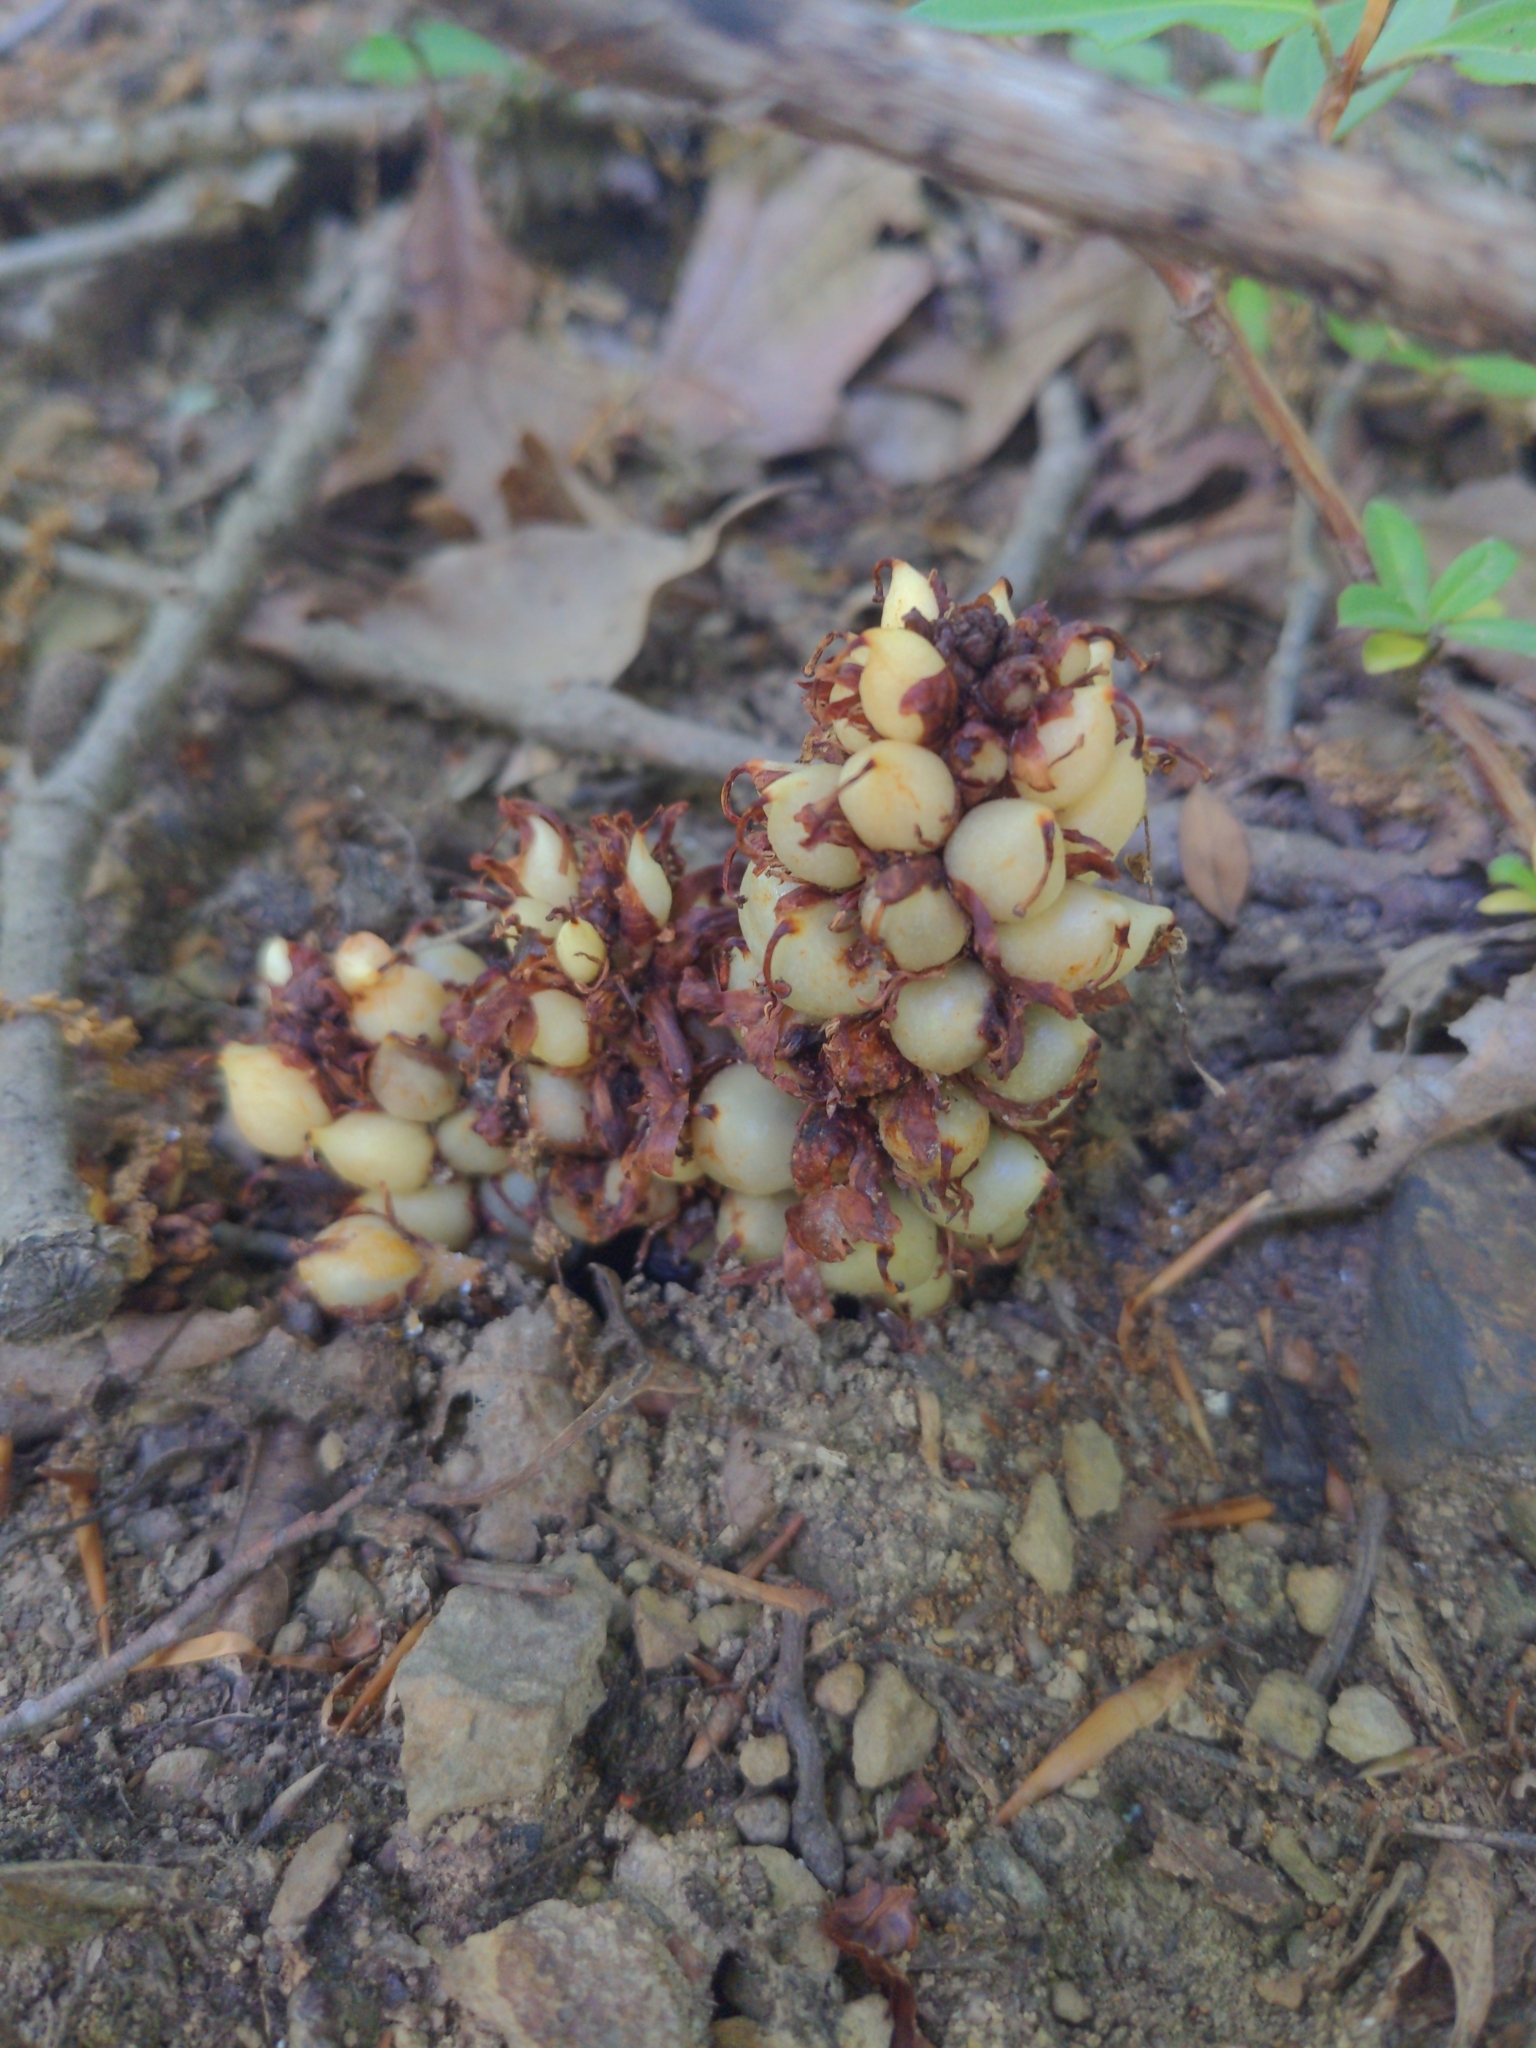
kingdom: Plantae
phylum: Tracheophyta
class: Magnoliopsida
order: Lamiales
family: Orobanchaceae
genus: Conopholis
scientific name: Conopholis americana
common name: American cancer-root
